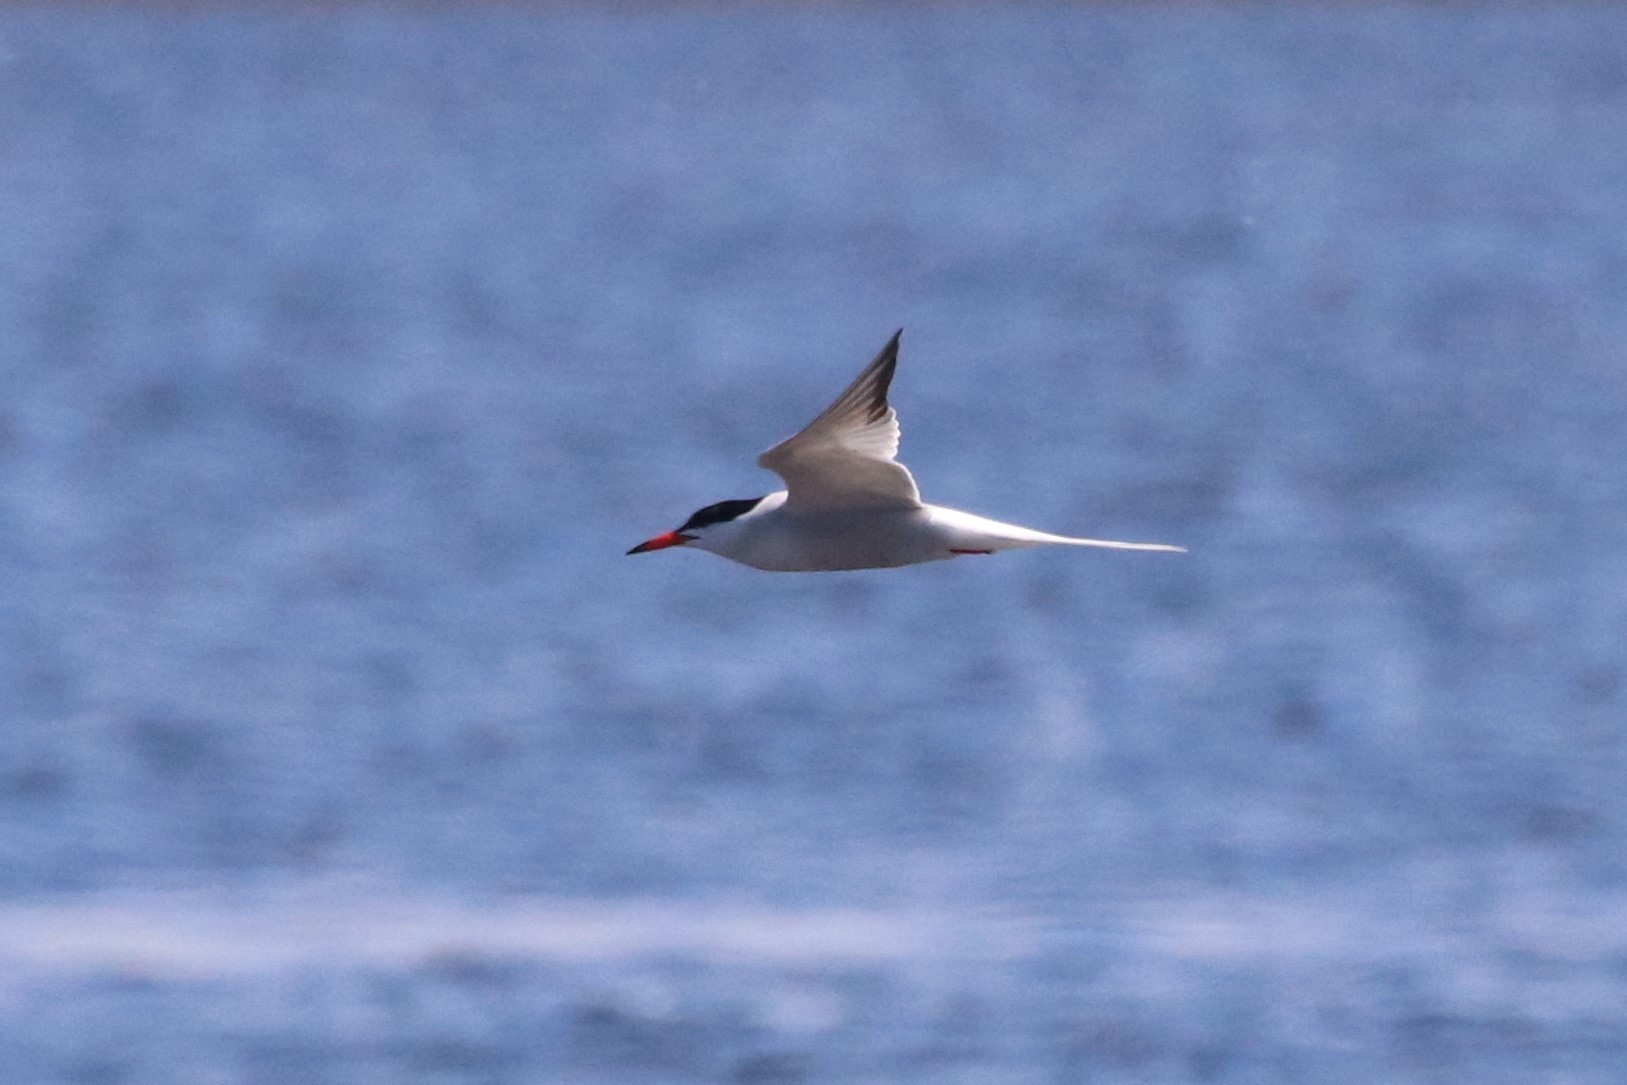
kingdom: Animalia
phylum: Chordata
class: Aves
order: Charadriiformes
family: Laridae
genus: Sterna
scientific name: Sterna hirundo
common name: Common tern
